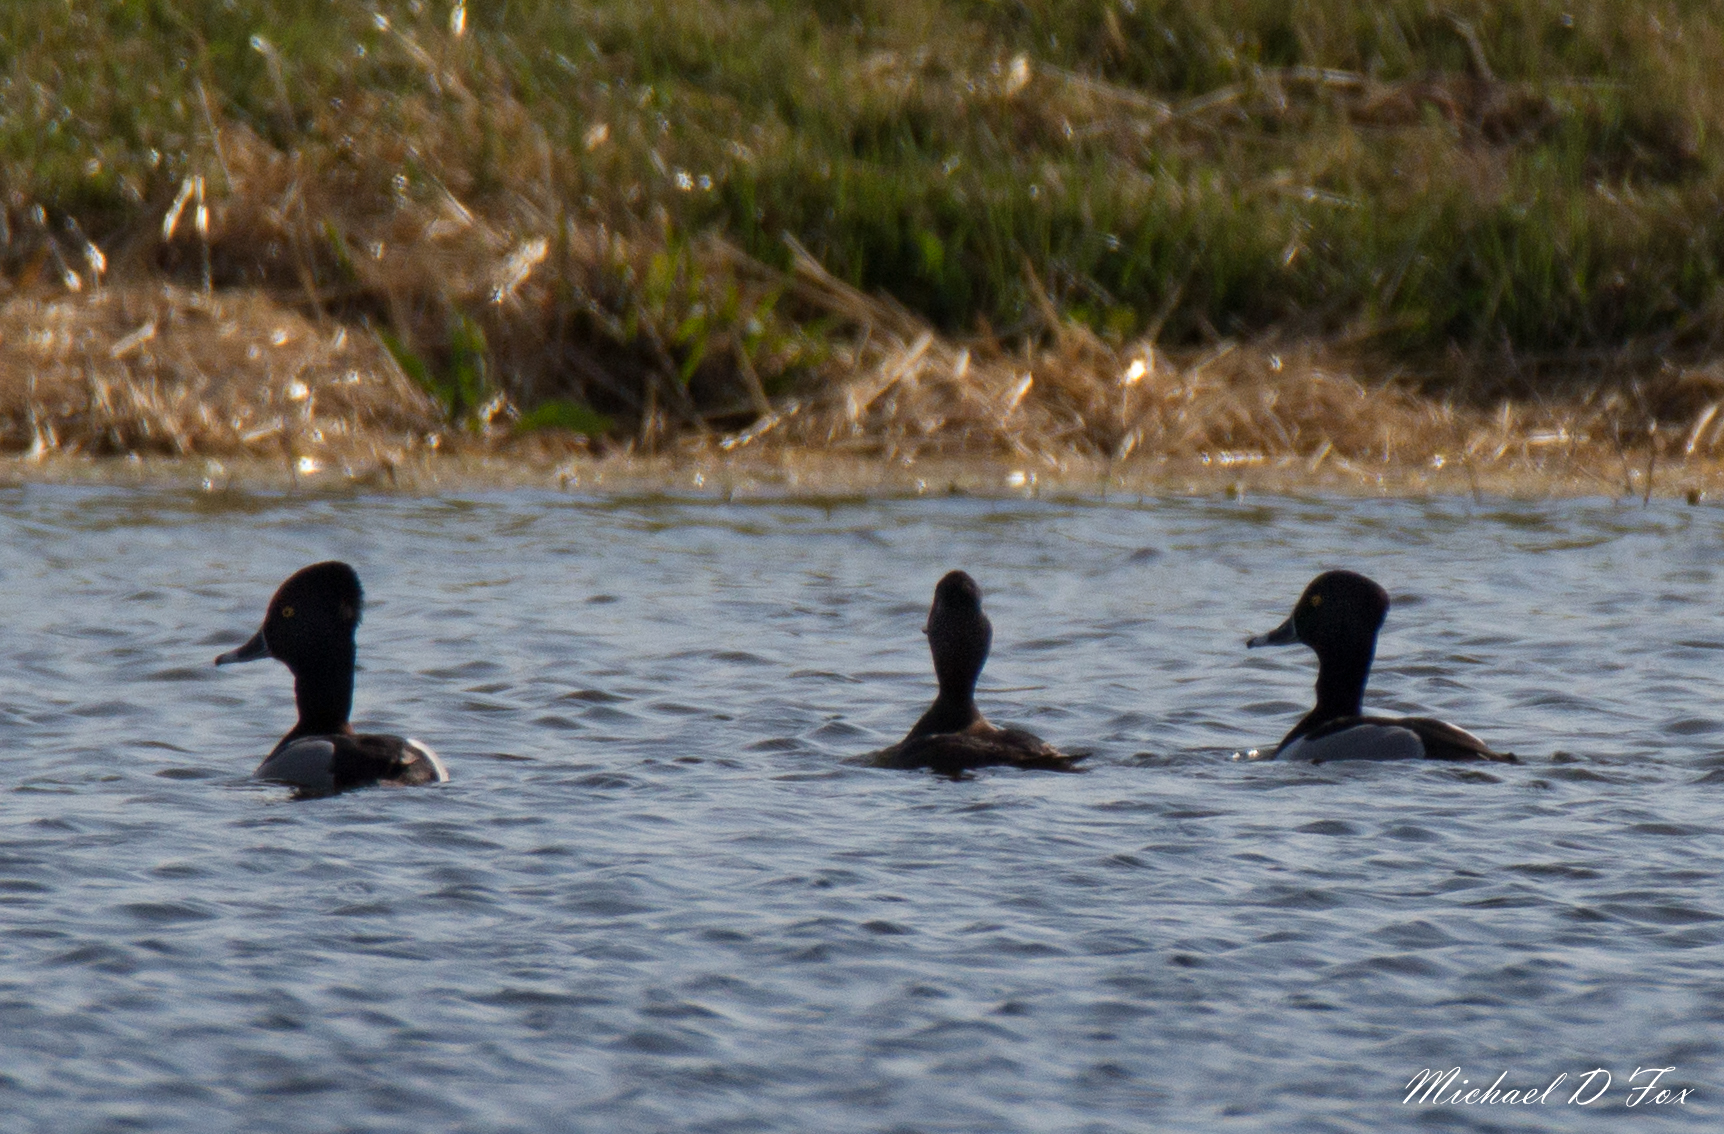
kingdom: Animalia
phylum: Chordata
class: Aves
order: Anseriformes
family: Anatidae
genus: Aythya
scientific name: Aythya collaris
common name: Ring-necked duck
